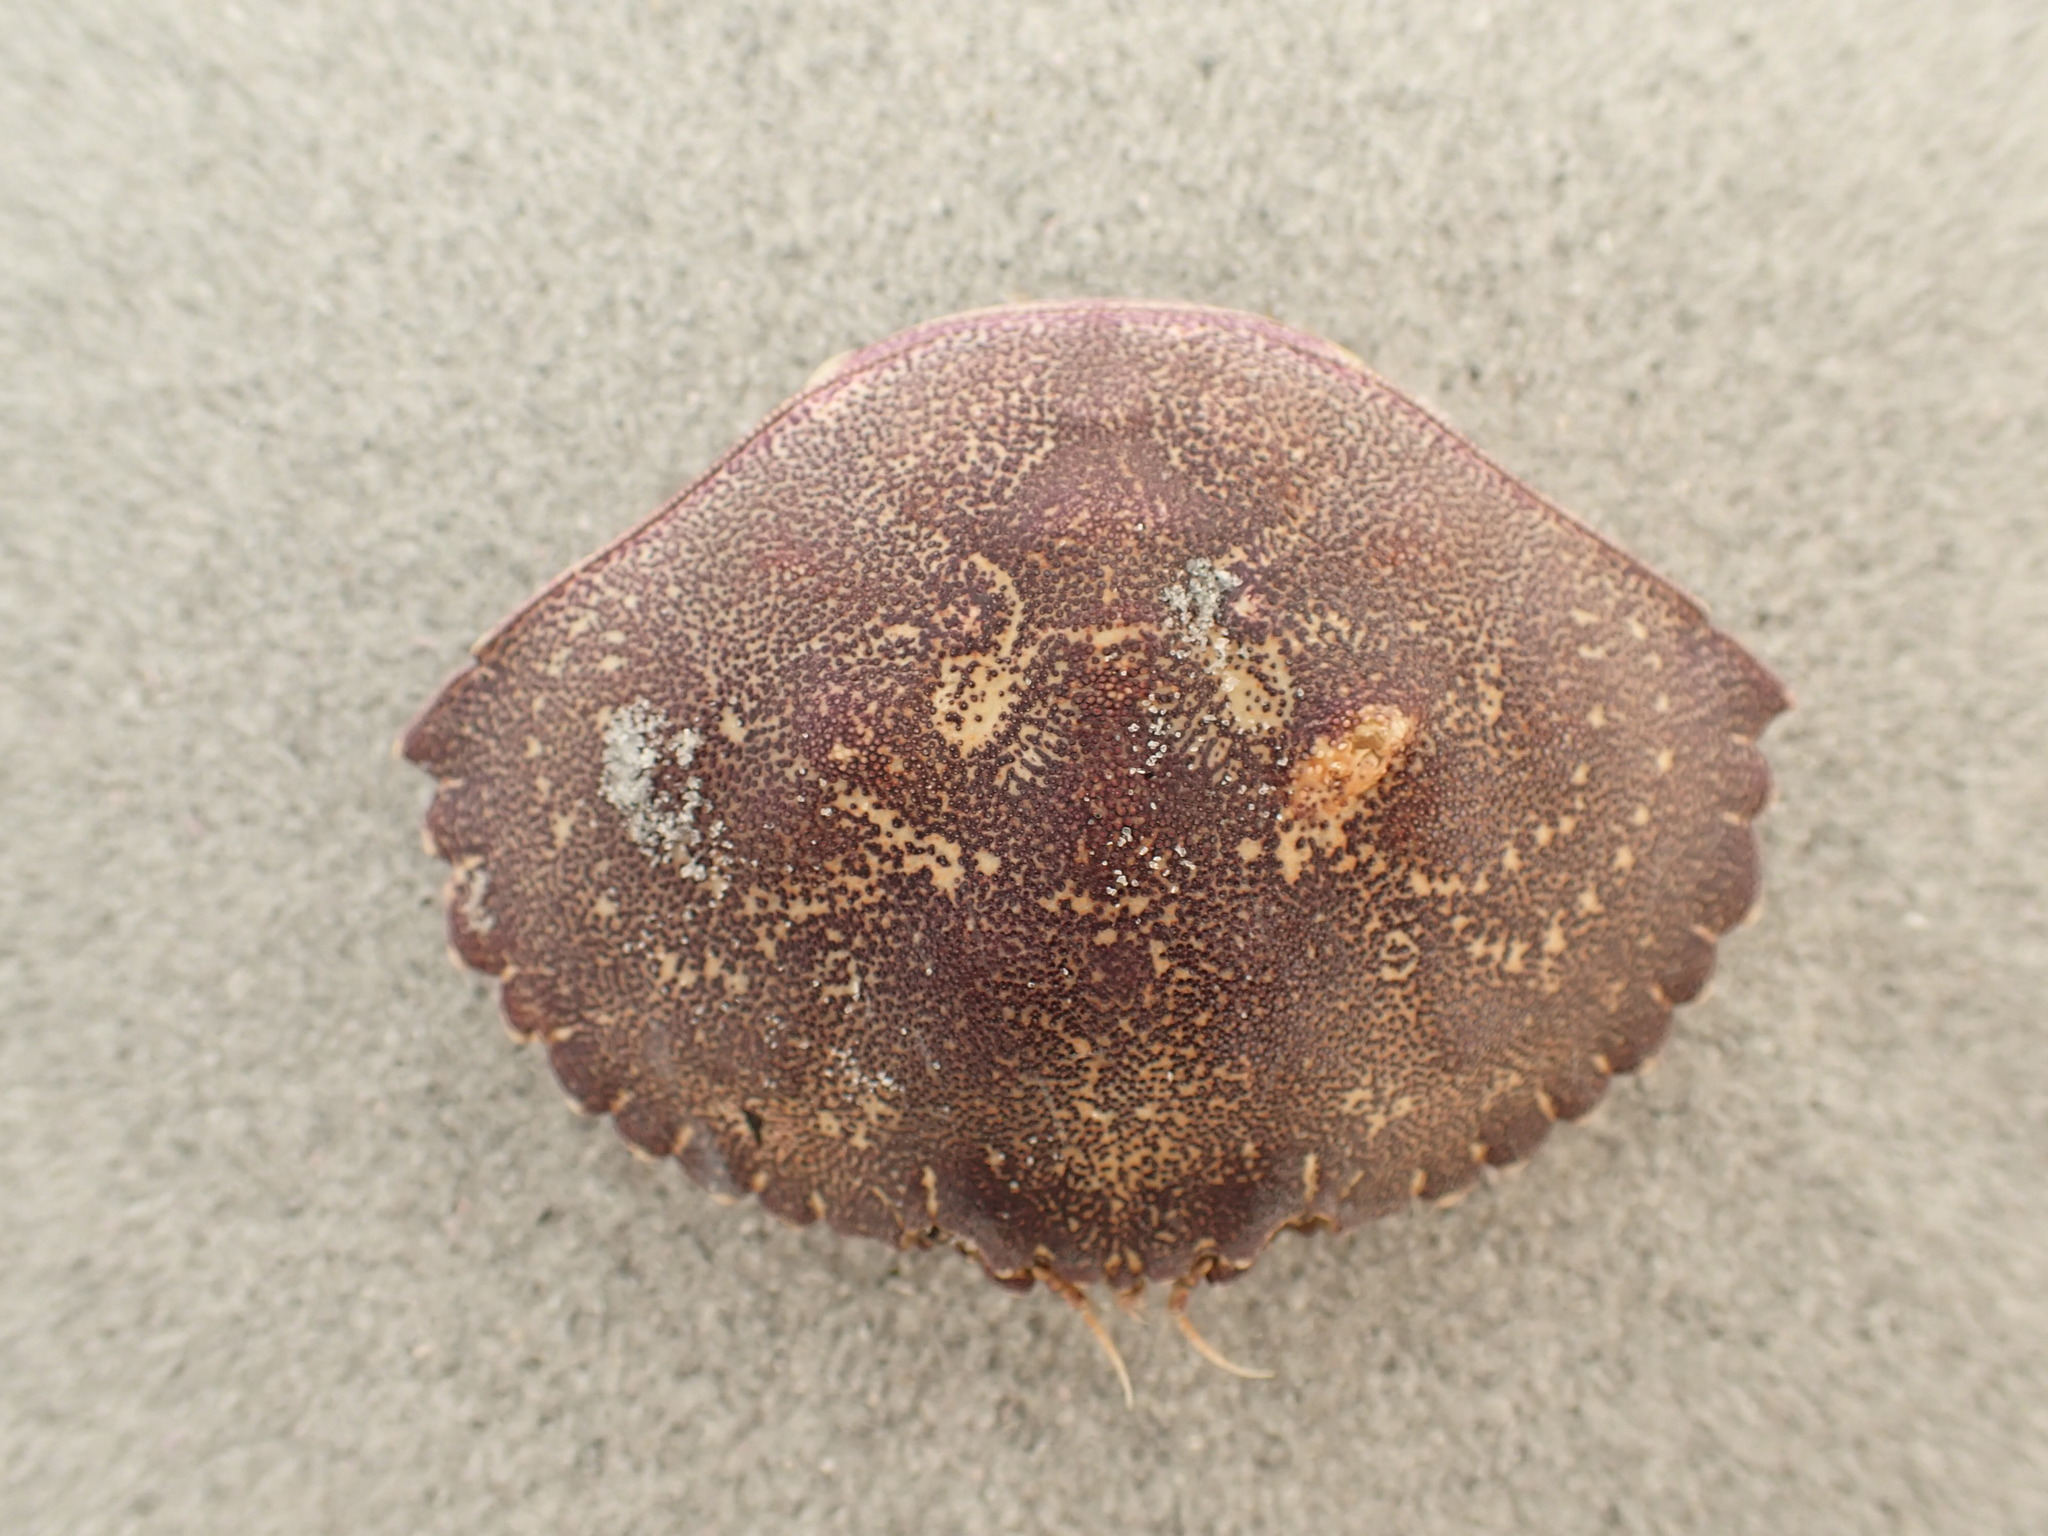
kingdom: Animalia
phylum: Arthropoda
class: Malacostraca
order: Decapoda
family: Cancridae
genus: Cancer
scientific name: Cancer irroratus
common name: Atlantic rock crab
